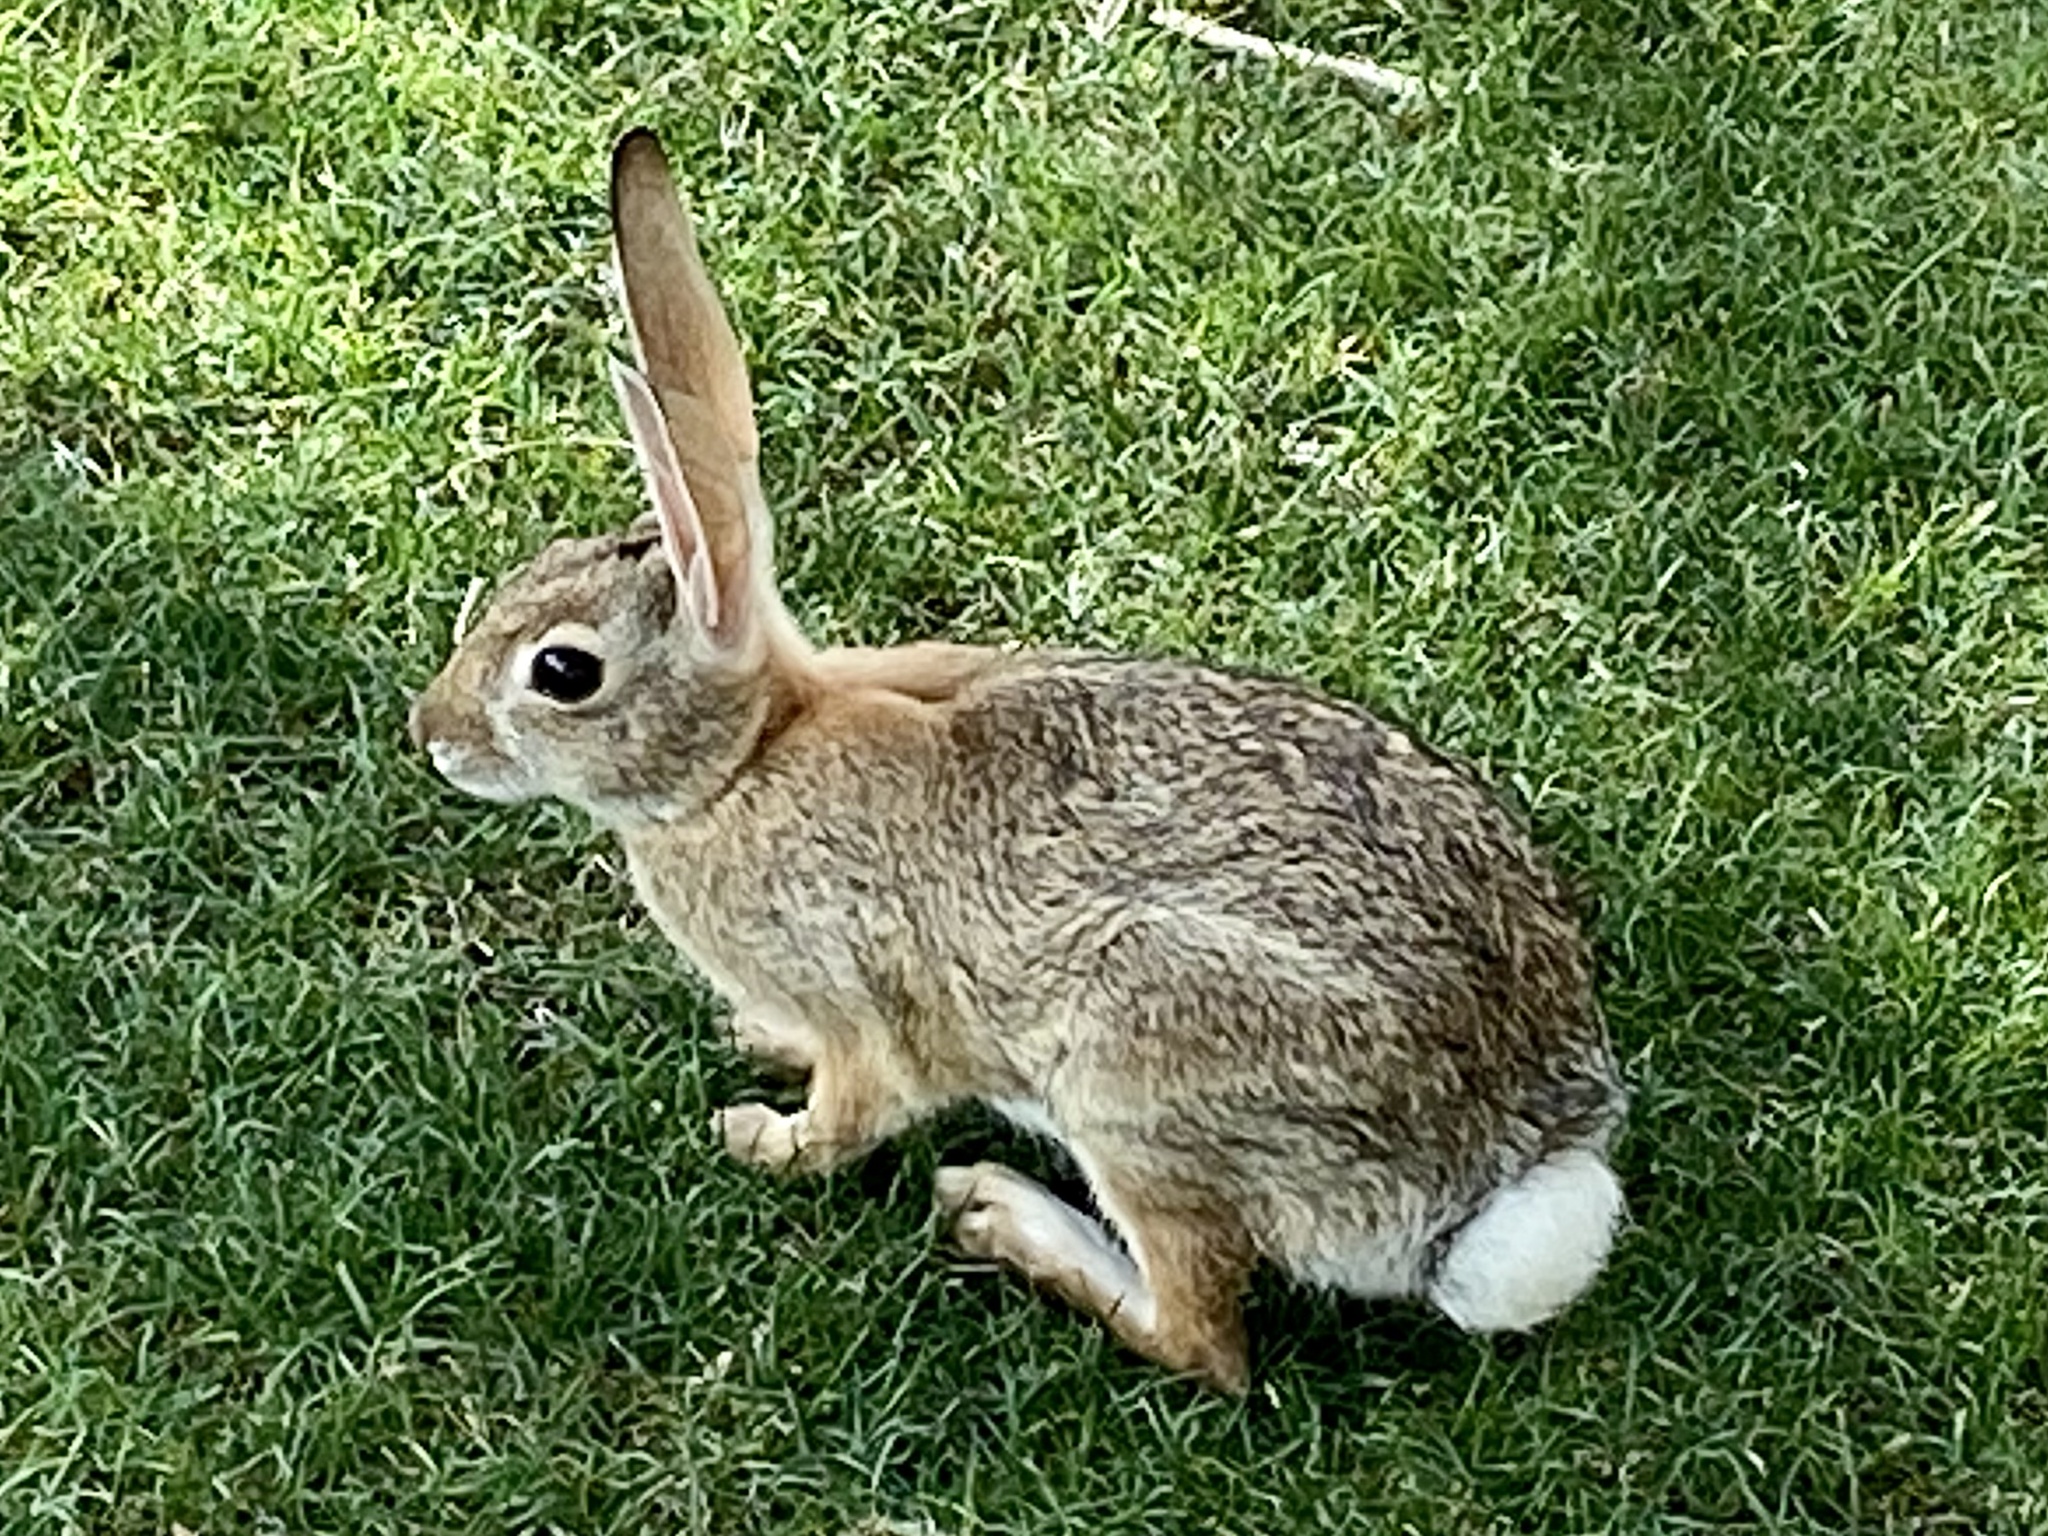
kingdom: Animalia
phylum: Chordata
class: Mammalia
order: Lagomorpha
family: Leporidae
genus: Sylvilagus
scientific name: Sylvilagus audubonii
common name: Desert cottontail
